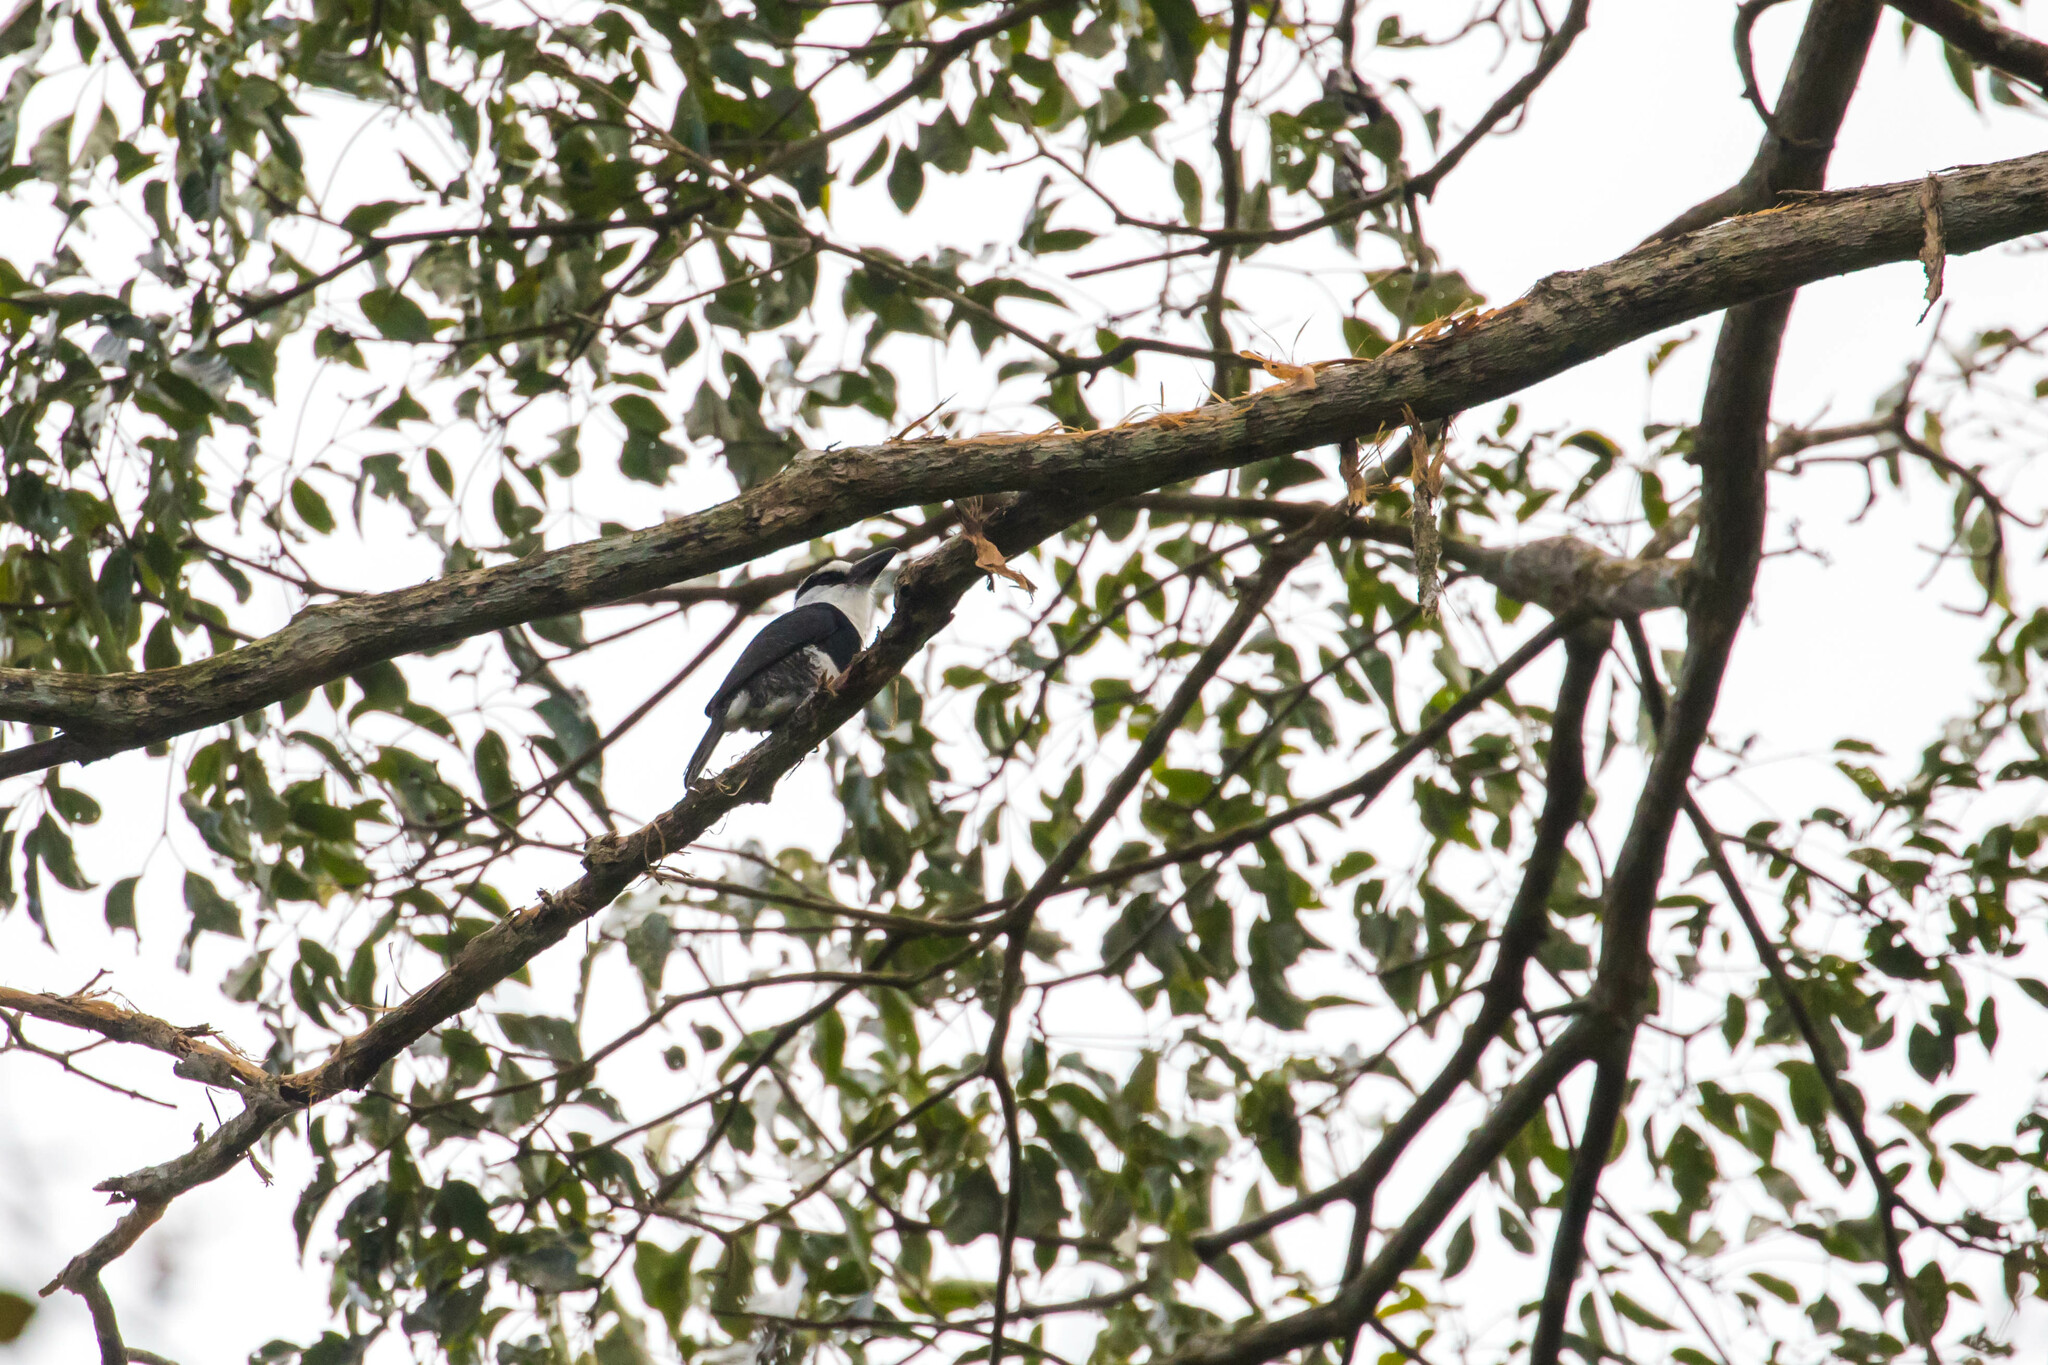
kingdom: Animalia
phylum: Chordata
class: Aves
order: Piciformes
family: Bucconidae
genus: Notharchus
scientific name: Notharchus hyperrhynchus
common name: White-necked puffbird
